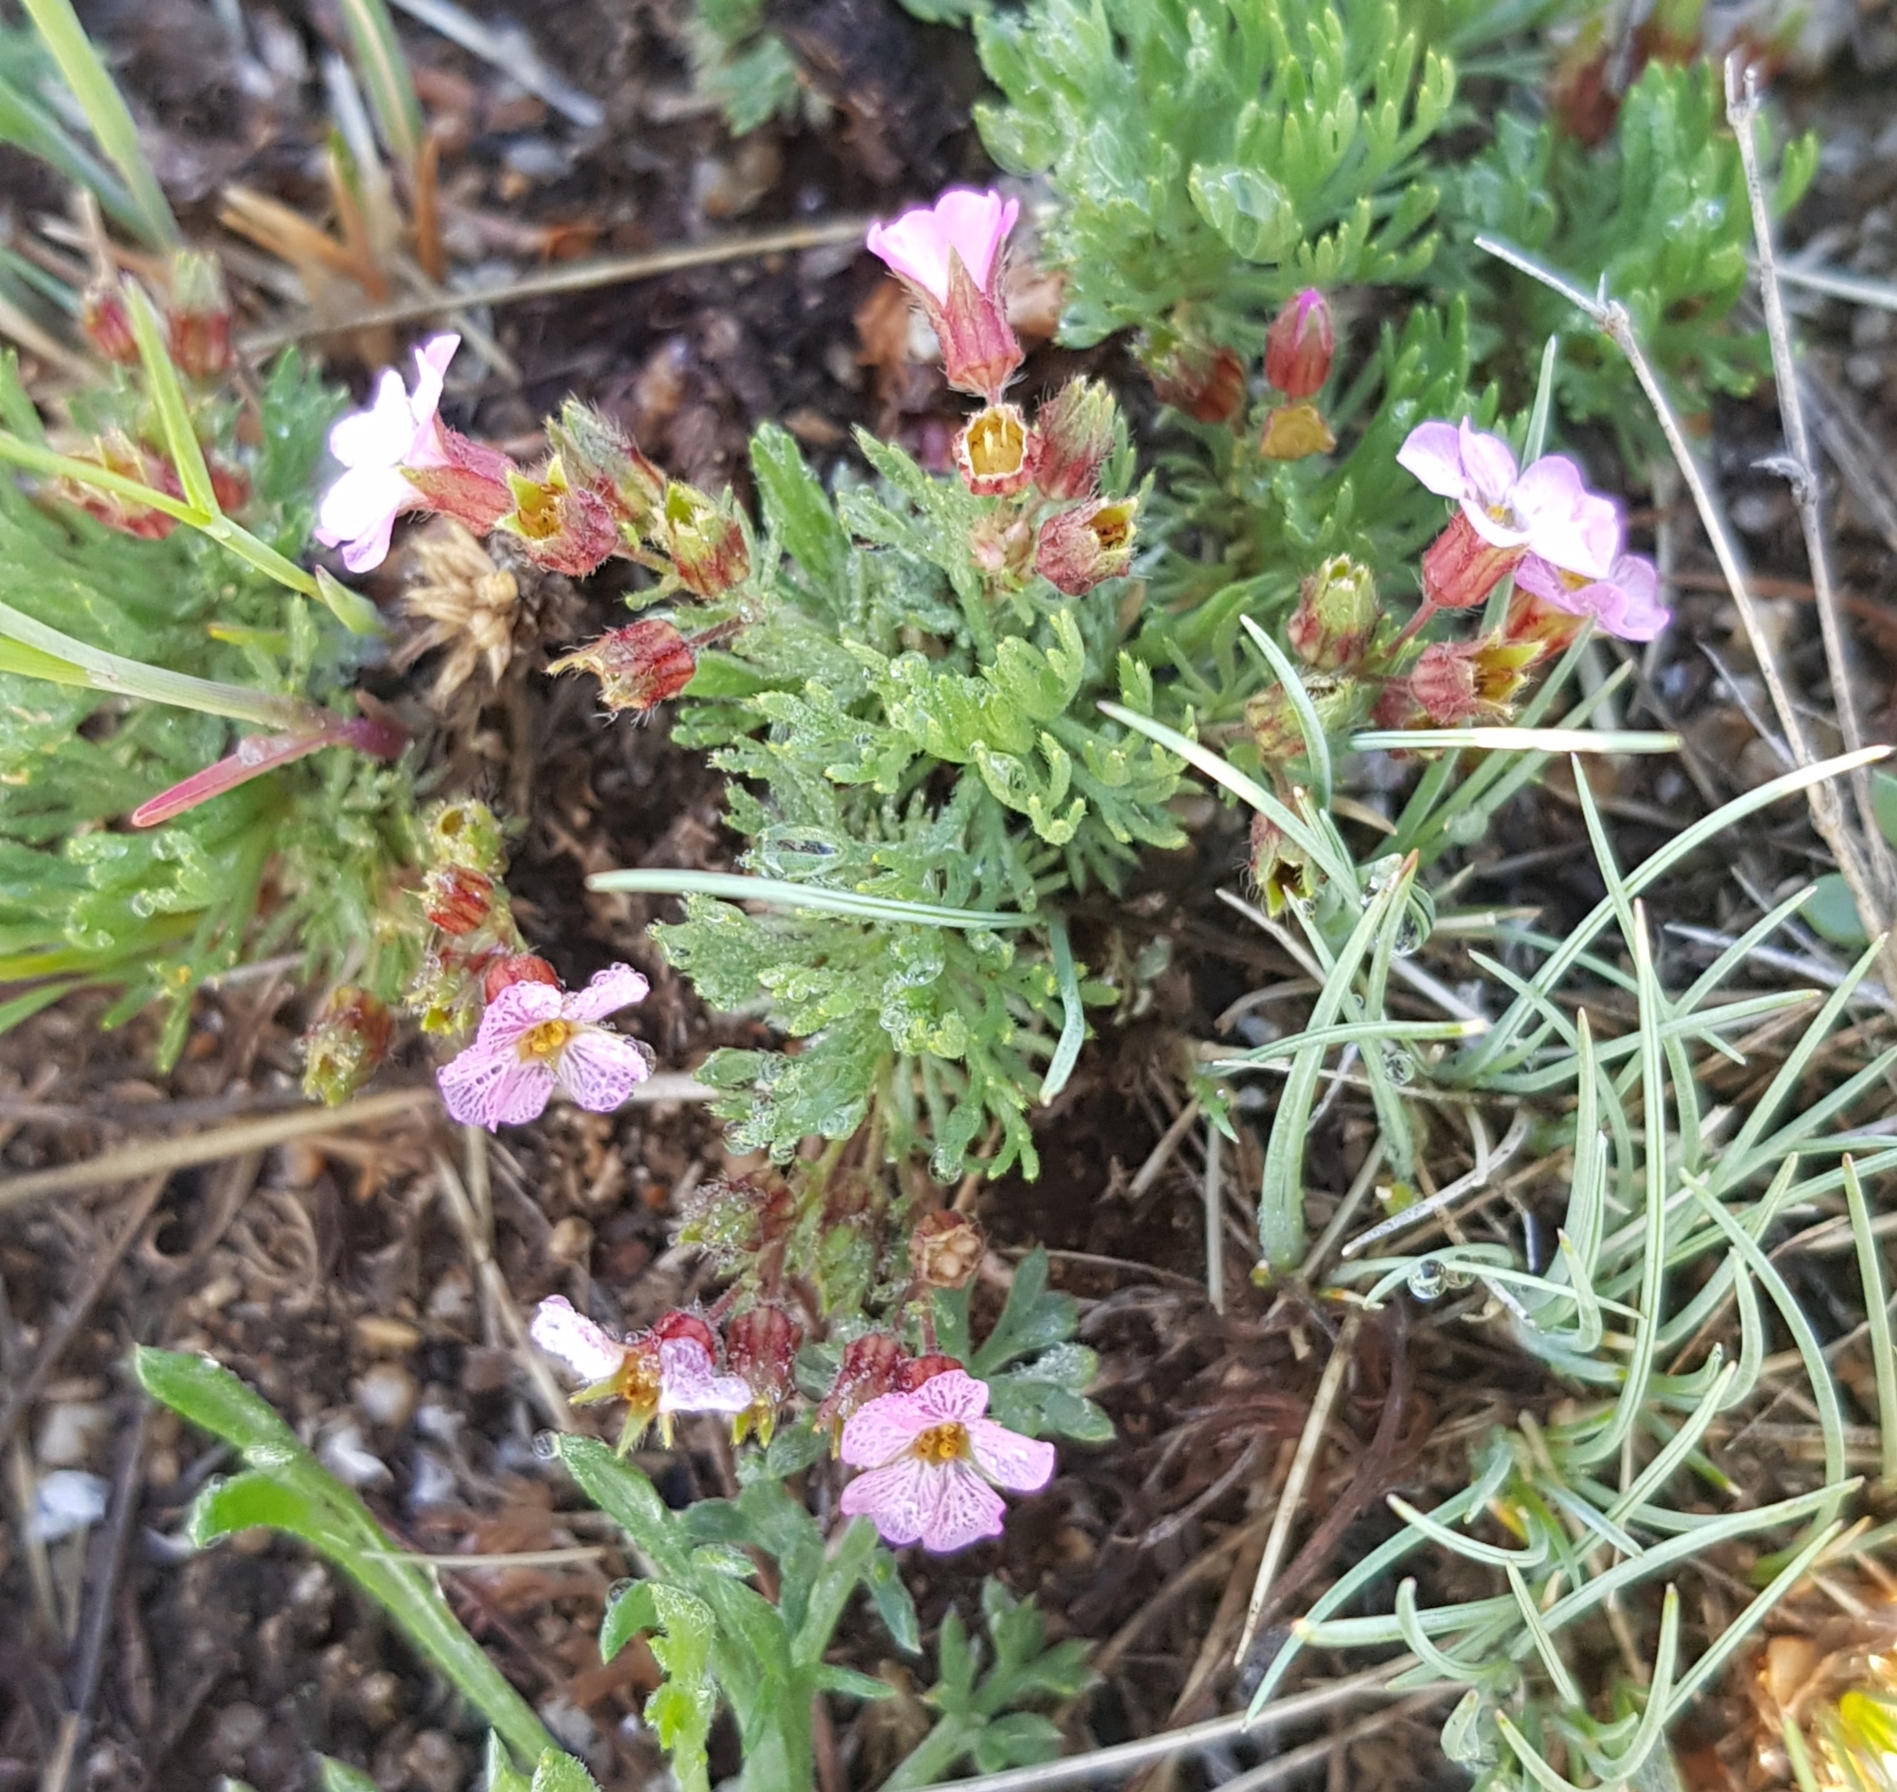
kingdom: Plantae
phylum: Tracheophyta
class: Magnoliopsida
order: Rosales
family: Rosaceae
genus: Chamaerhodos
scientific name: Chamaerhodos altaica
